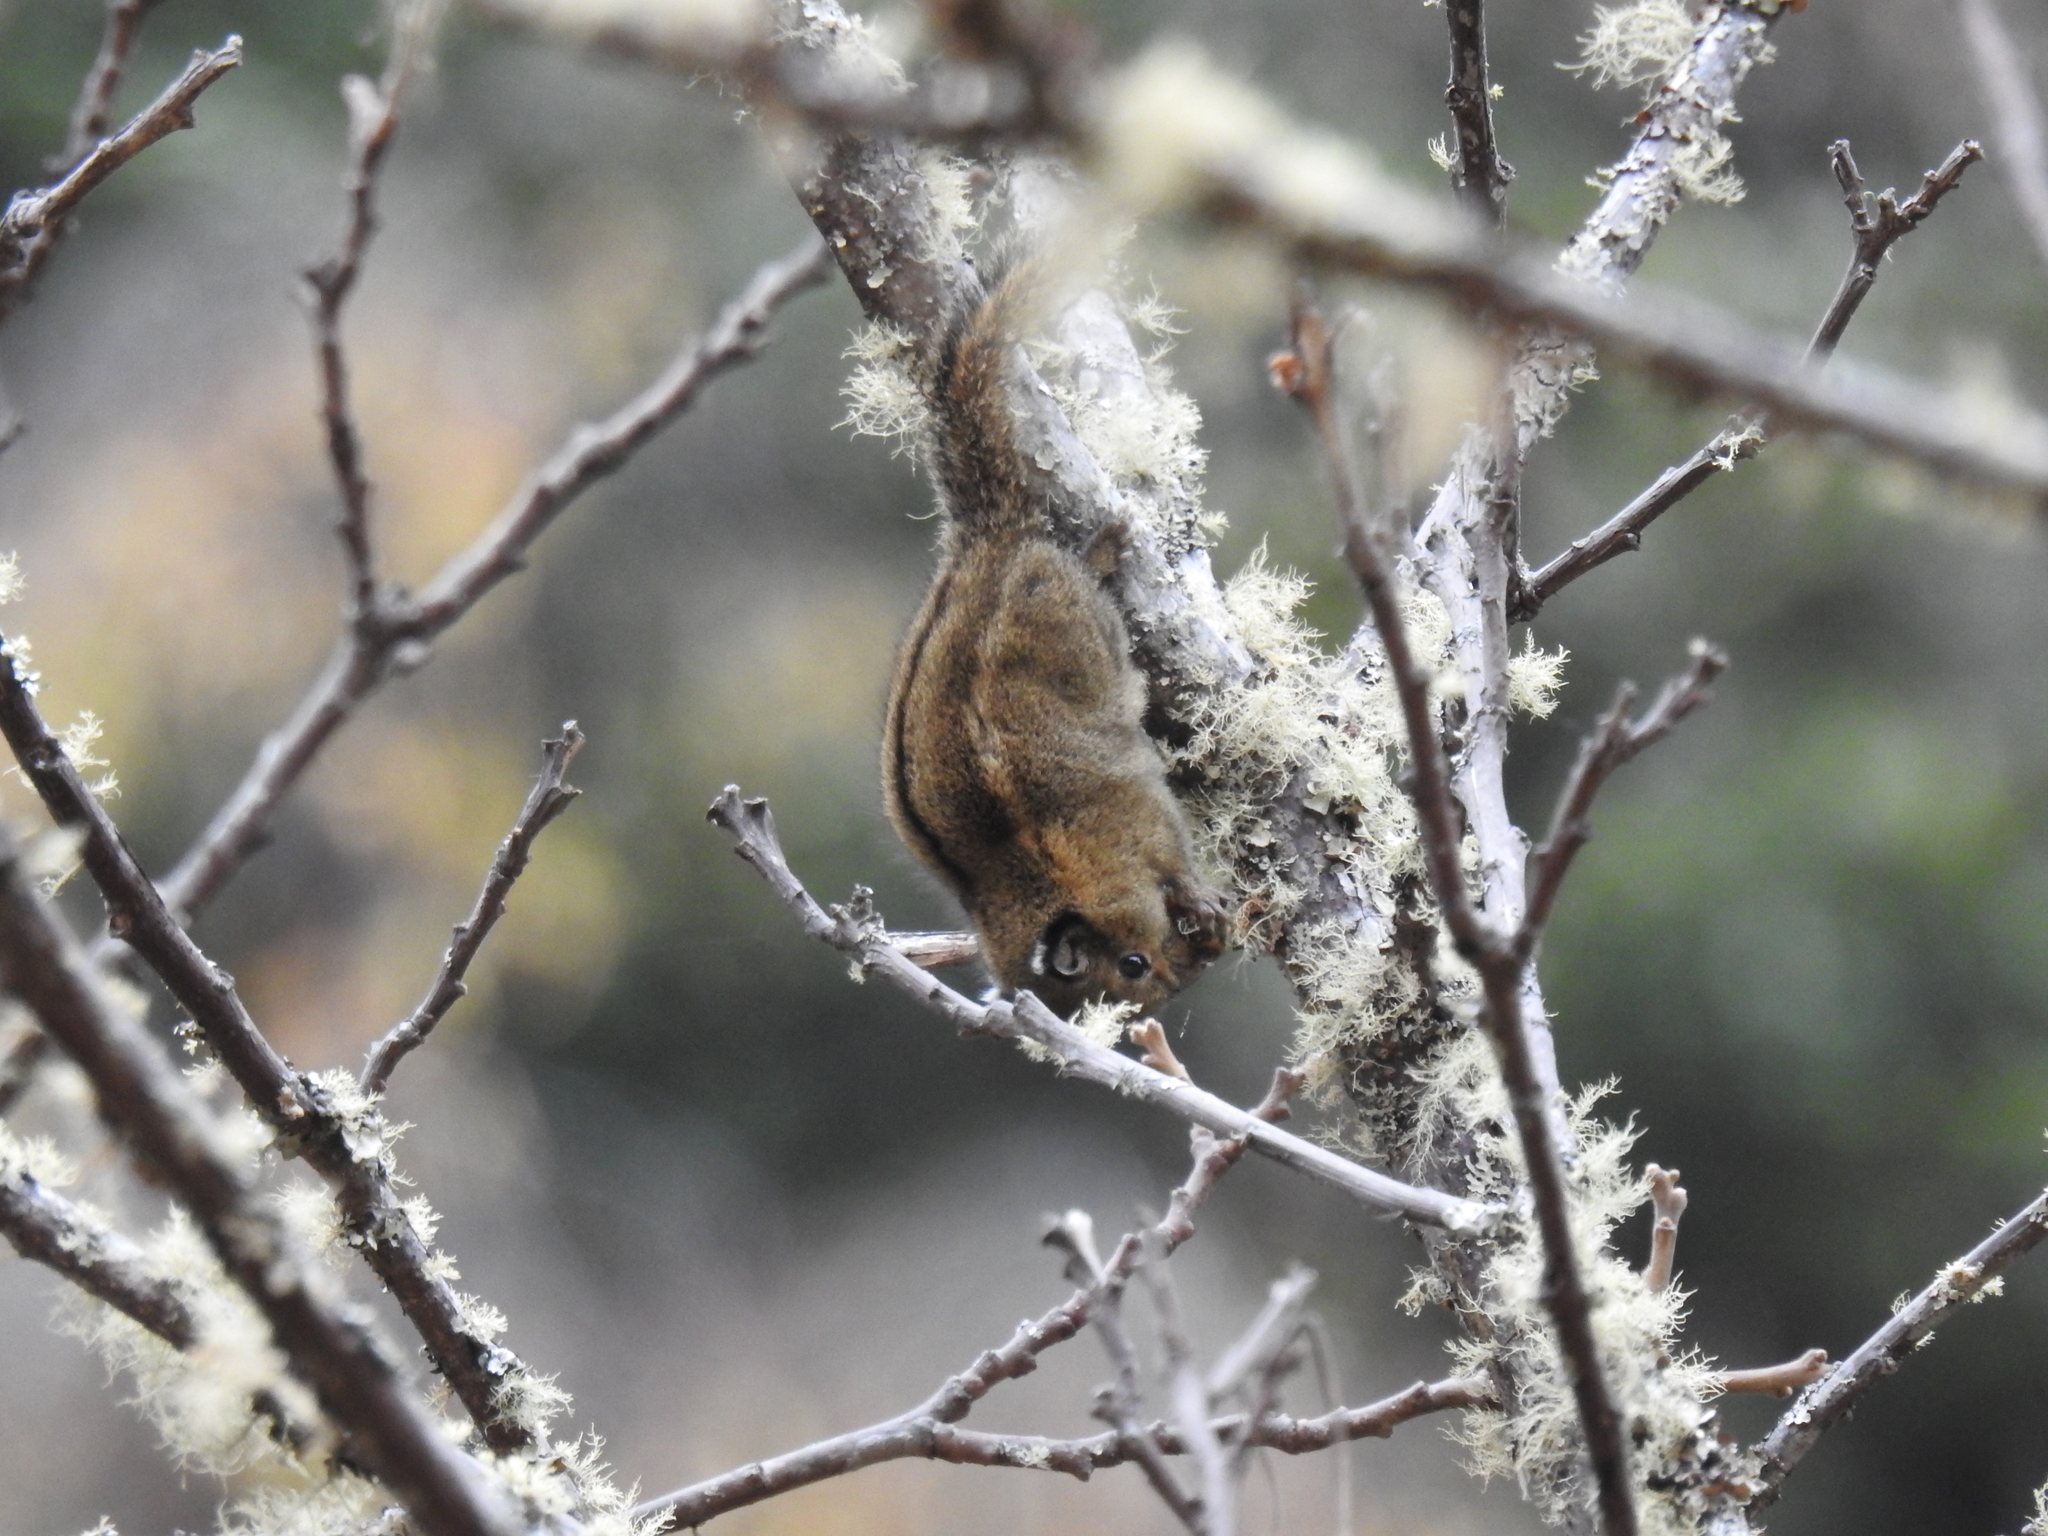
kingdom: Animalia
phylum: Chordata
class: Mammalia
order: Rodentia
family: Sciuridae
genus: Tamiops
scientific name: Tamiops mcclellandii
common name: Himalayan striped squirrel
